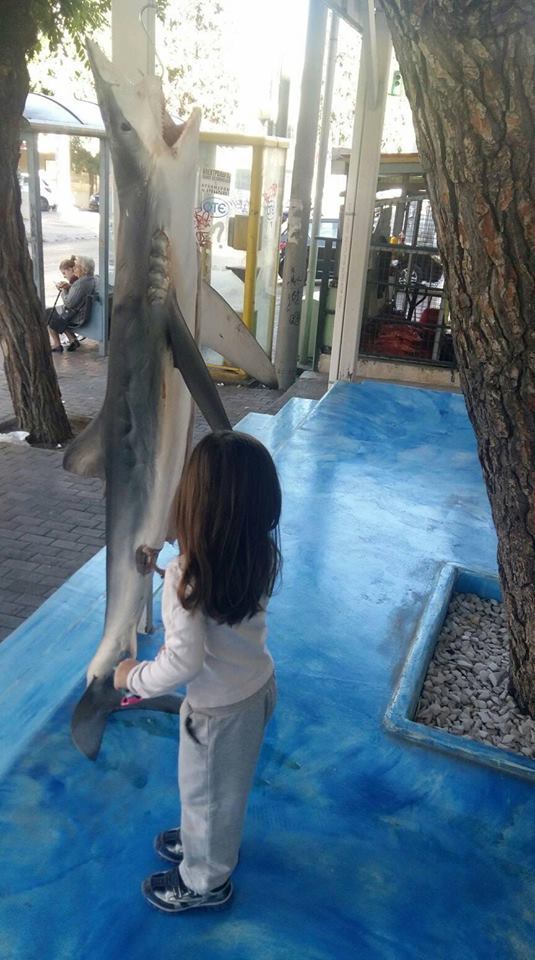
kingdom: Animalia
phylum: Chordata
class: Elasmobranchii
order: Carcharhiniformes
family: Carcharhinidae
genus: Prionace
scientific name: Prionace glauca
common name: Blue shark
